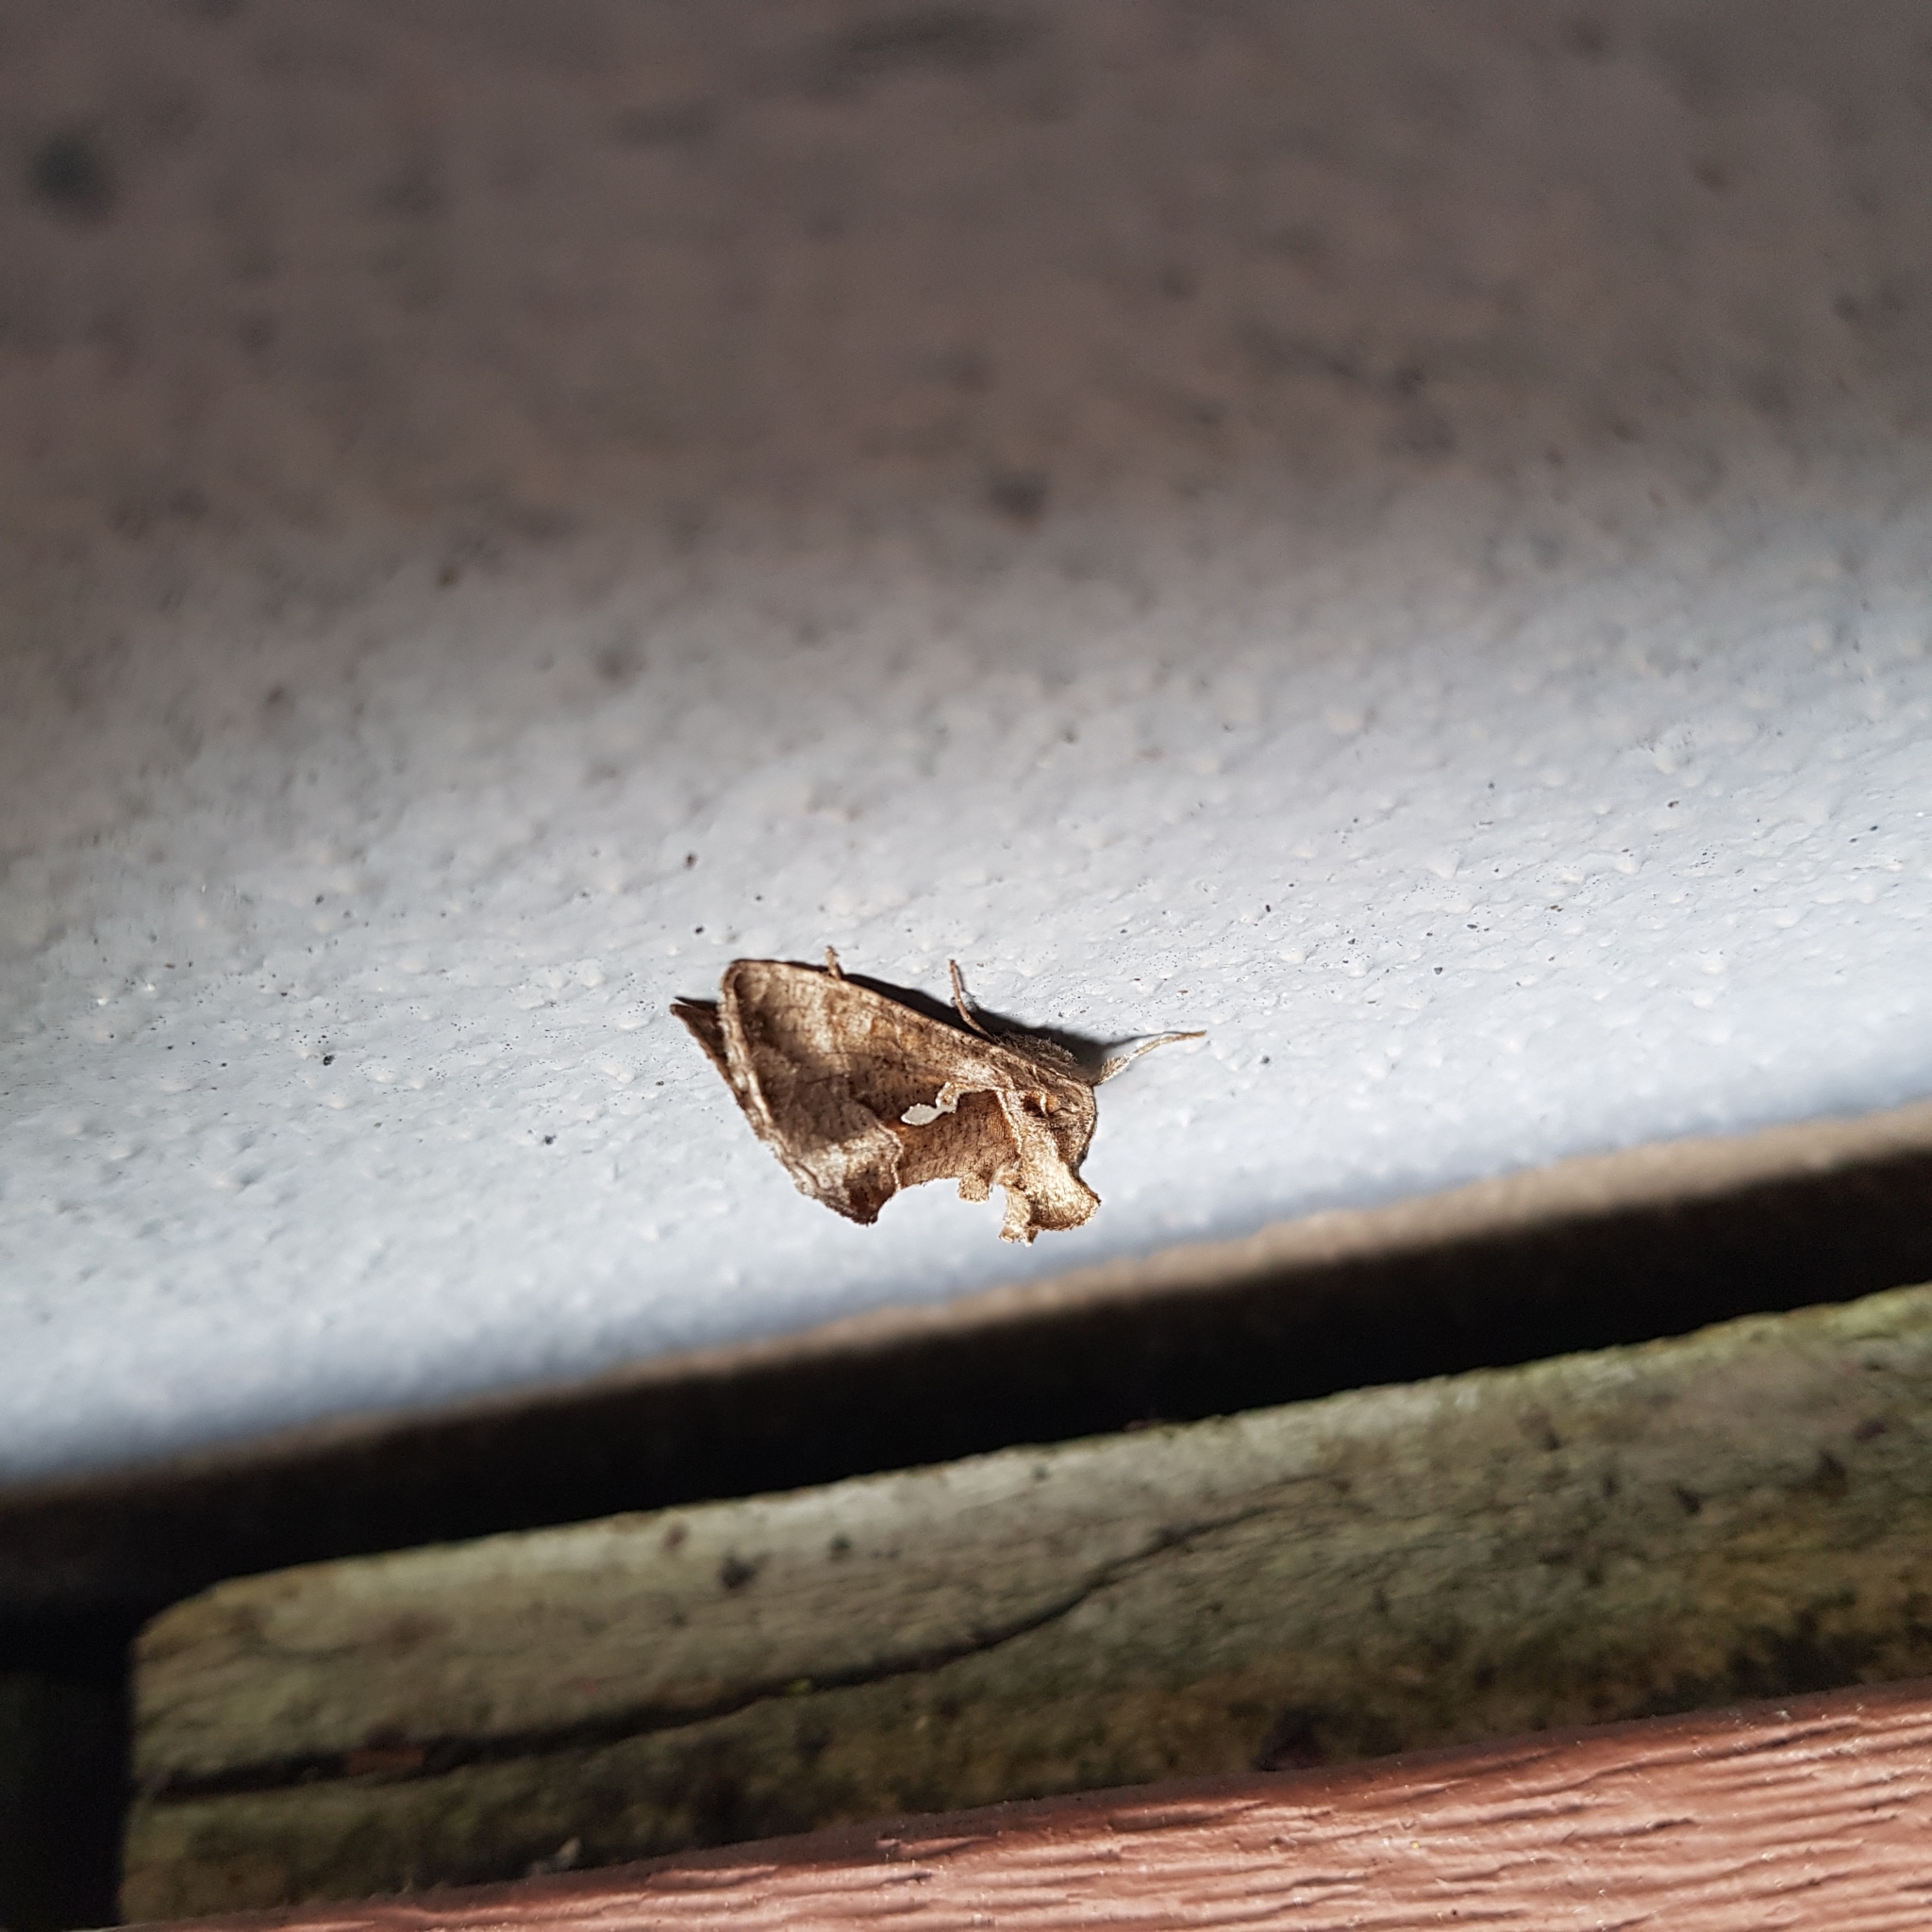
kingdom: Animalia
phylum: Arthropoda
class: Insecta
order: Lepidoptera
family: Noctuidae
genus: Chrysodeixis
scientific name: Chrysodeixis eriosoma
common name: Green garden looper
